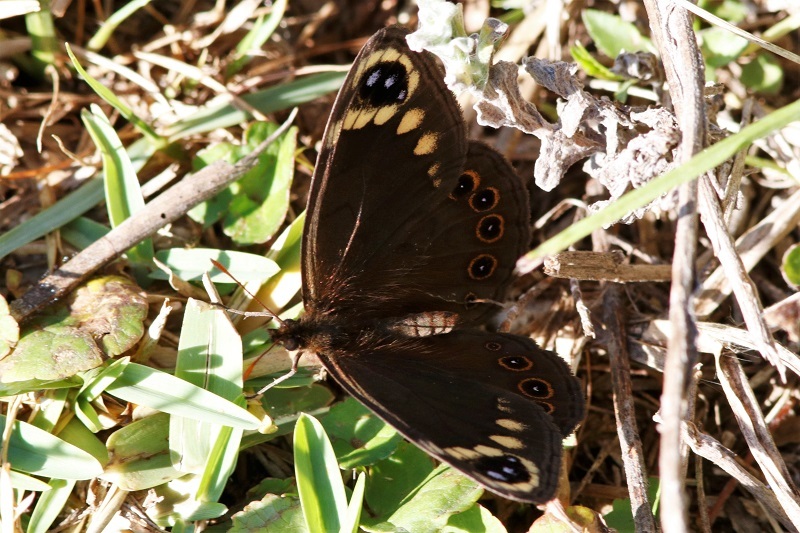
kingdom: Animalia
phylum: Arthropoda
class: Insecta
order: Lepidoptera
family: Nymphalidae
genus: Dira
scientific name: Dira clytus
